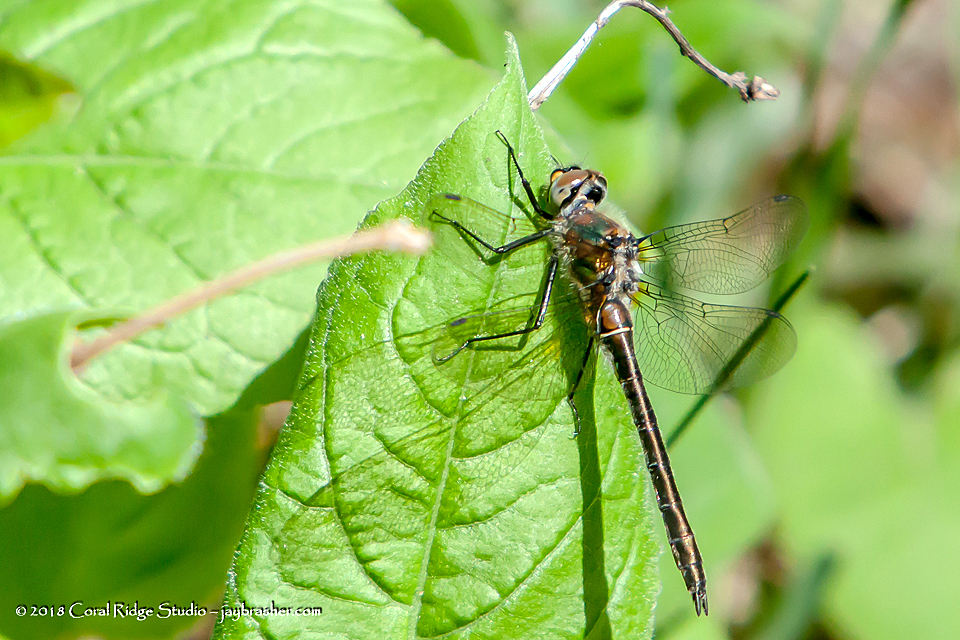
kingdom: Animalia
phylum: Arthropoda
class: Insecta
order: Odonata
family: Corduliidae
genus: Cordulia
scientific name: Cordulia shurtleffii
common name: American emerald
